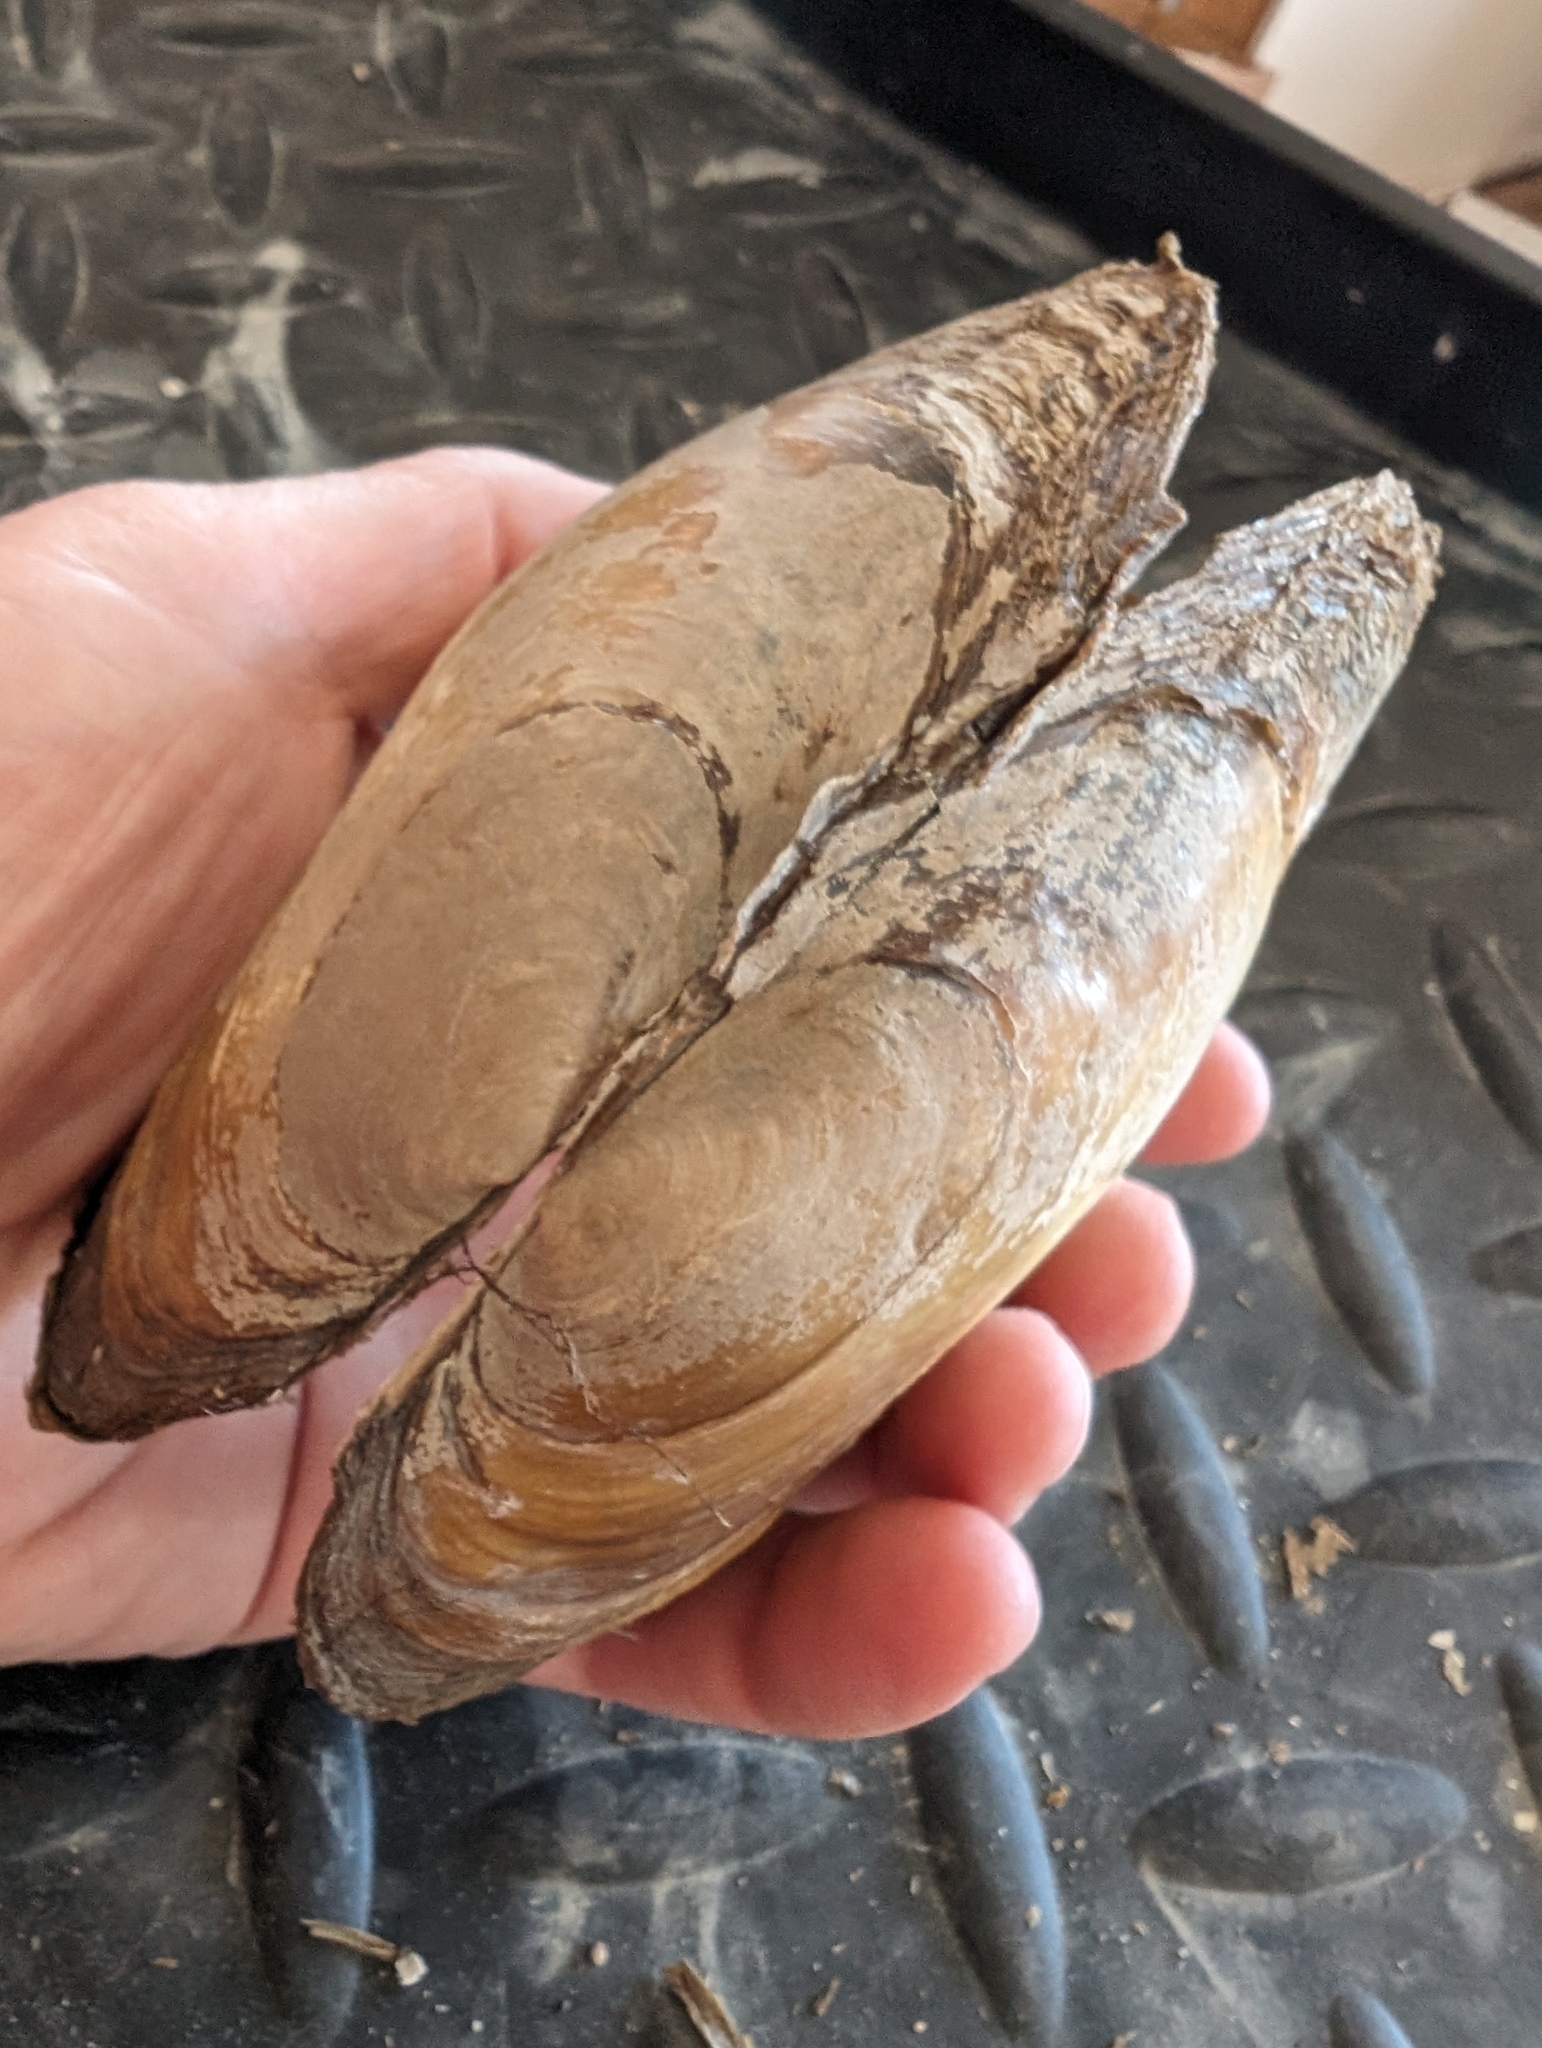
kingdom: Animalia
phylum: Mollusca
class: Bivalvia
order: Unionida
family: Unionidae
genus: Potamilus
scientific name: Potamilus fragilis
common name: Fragile papershell
